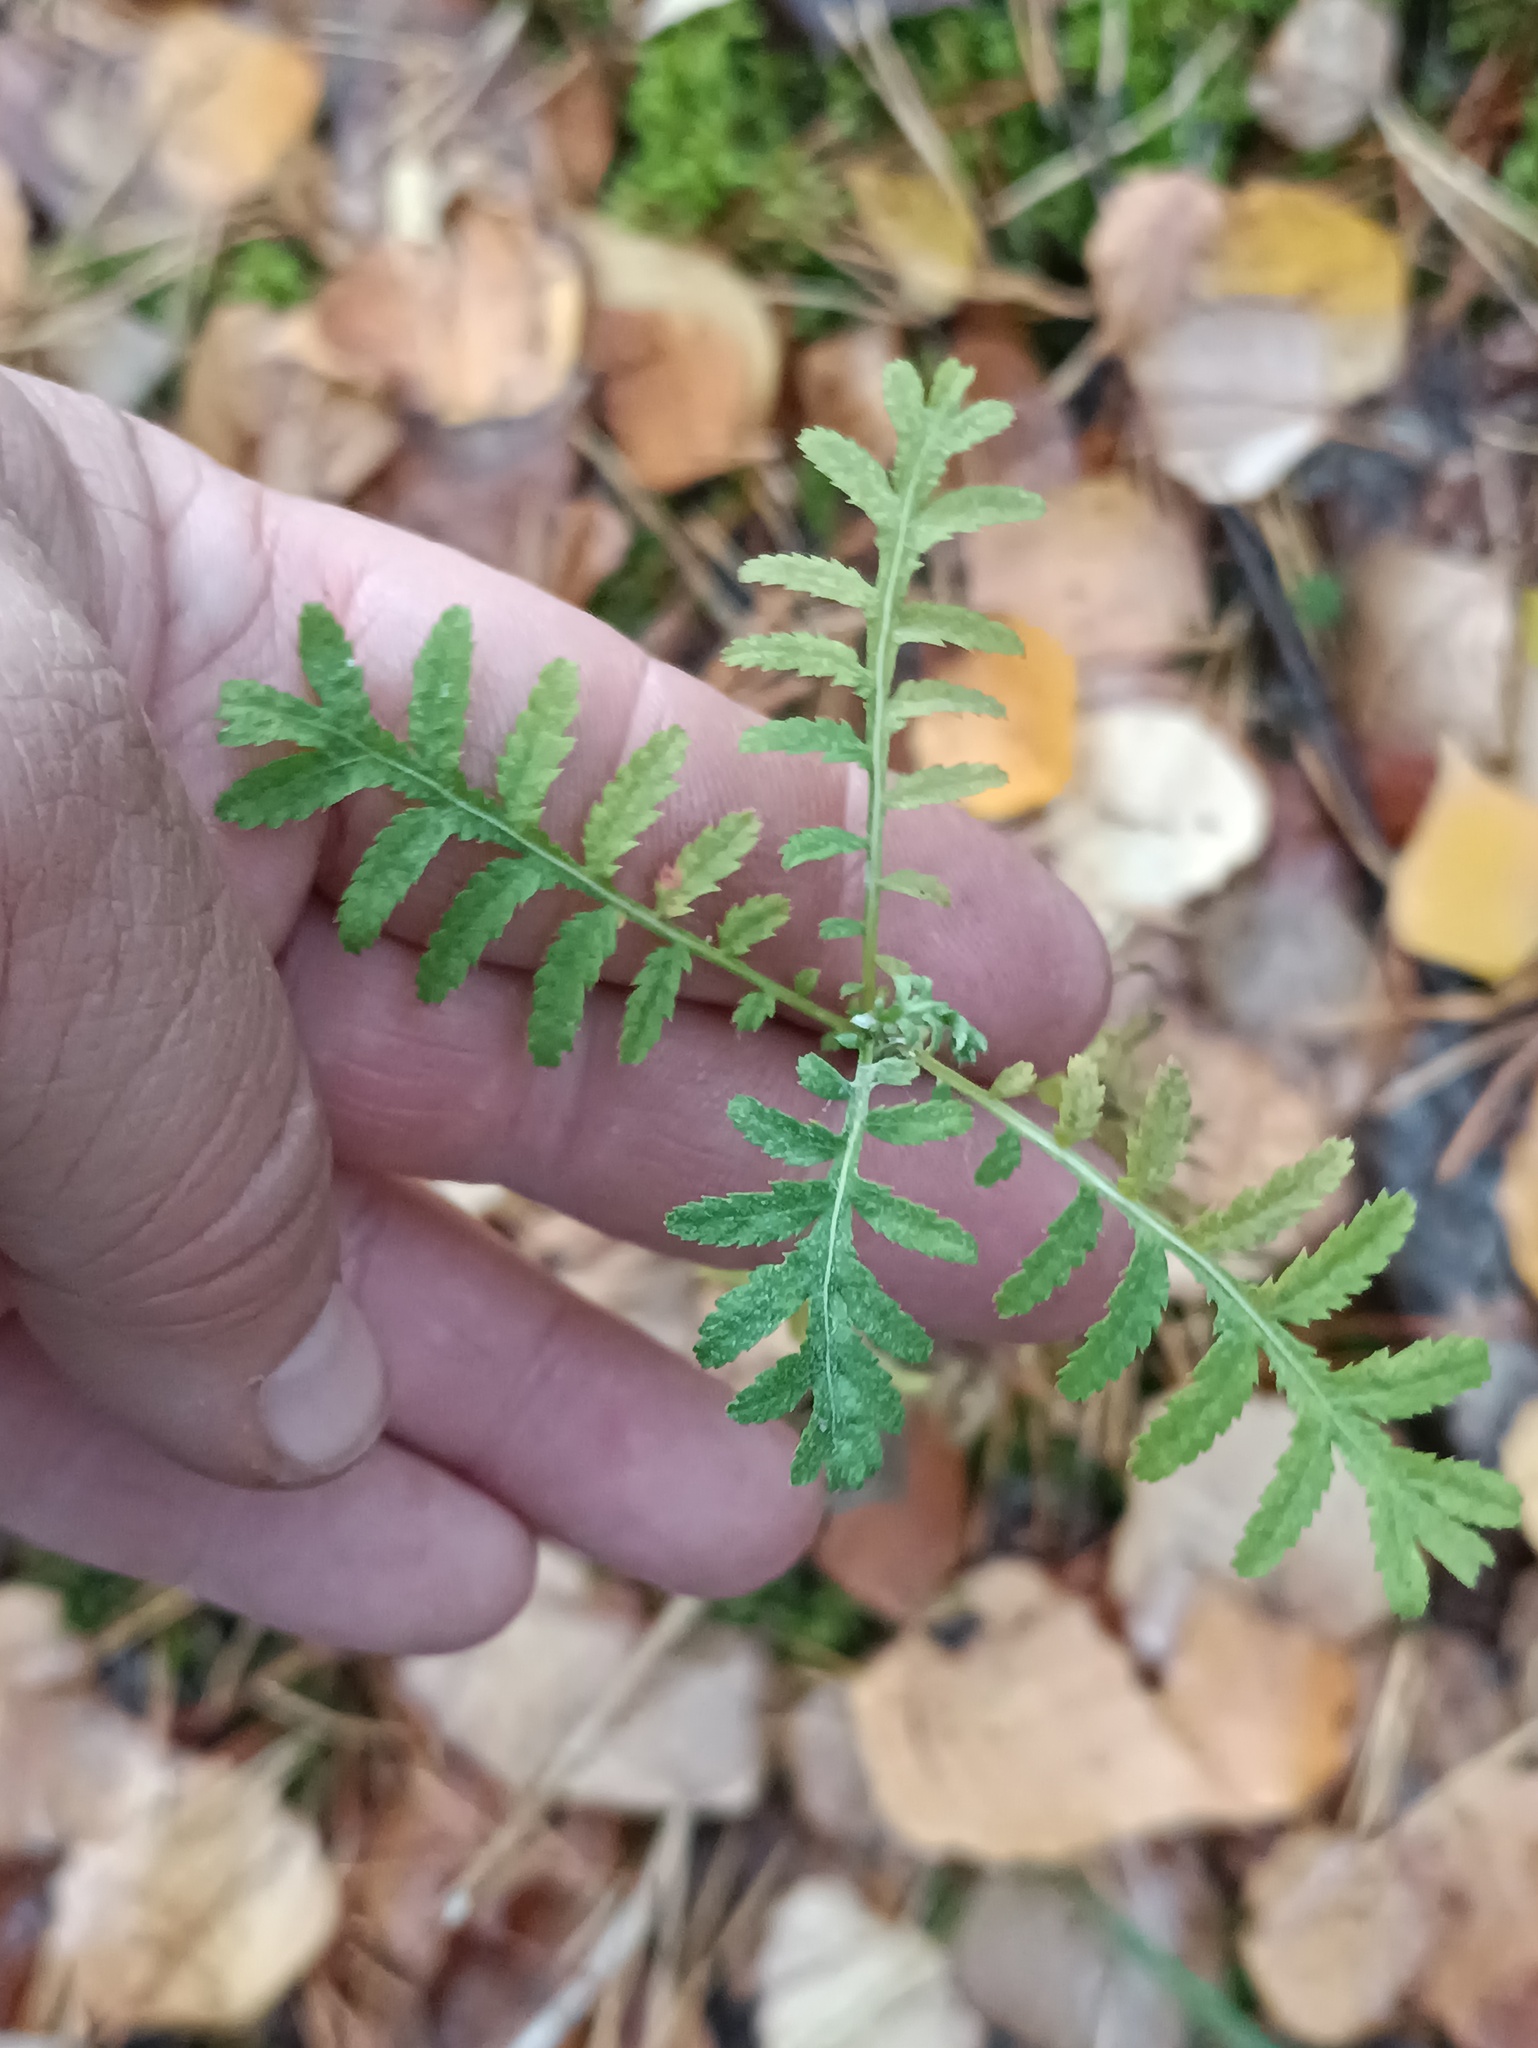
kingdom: Plantae
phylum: Tracheophyta
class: Magnoliopsida
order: Asterales
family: Asteraceae
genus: Tanacetum
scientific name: Tanacetum vulgare
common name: Common tansy
